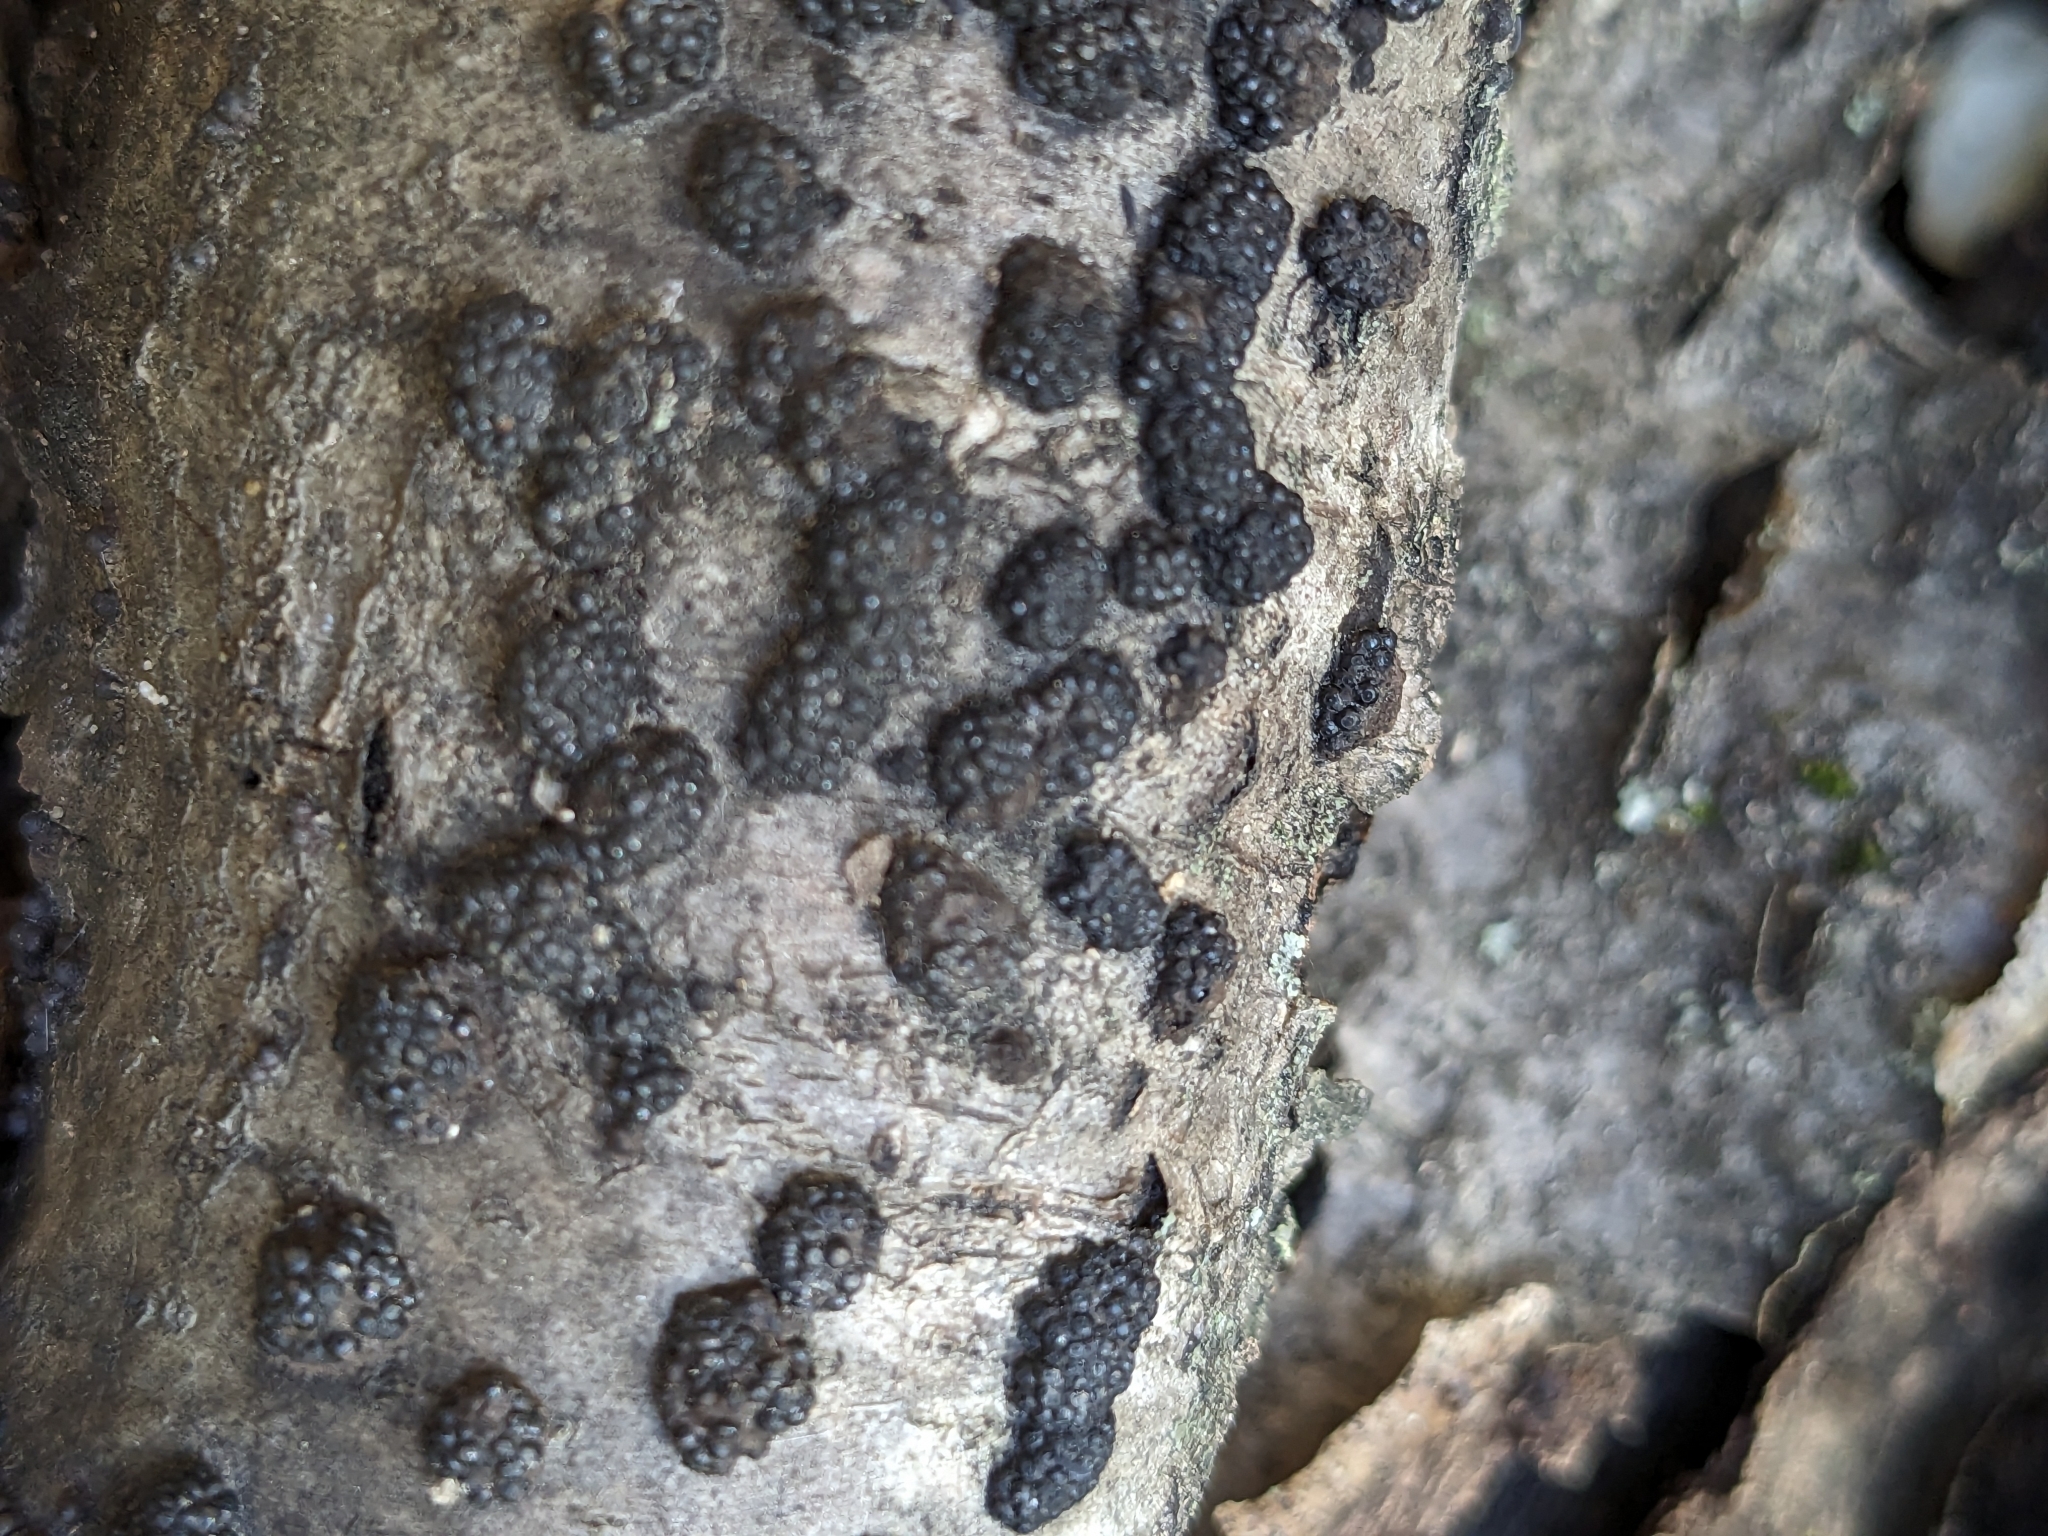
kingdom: Fungi
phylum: Ascomycota
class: Sordariomycetes
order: Xylariales
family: Hypoxylaceae
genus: Jackrogersella
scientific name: Jackrogersella cohaerens
